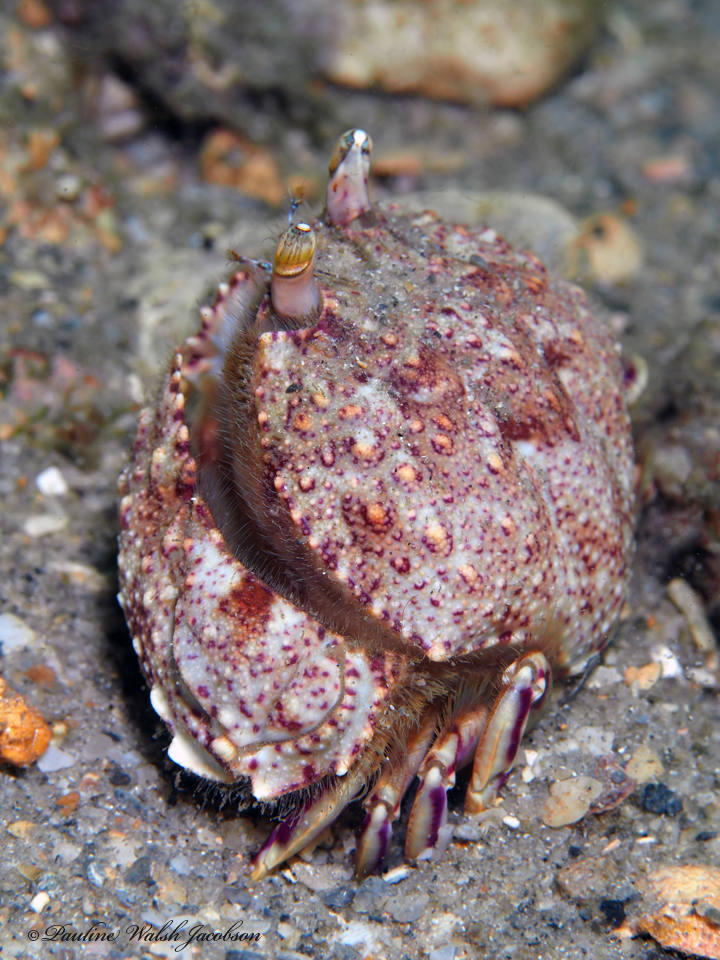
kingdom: Animalia
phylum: Arthropoda
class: Malacostraca
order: Decapoda
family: Calappidae
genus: Cryptosoma
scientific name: Cryptosoma bairdii
